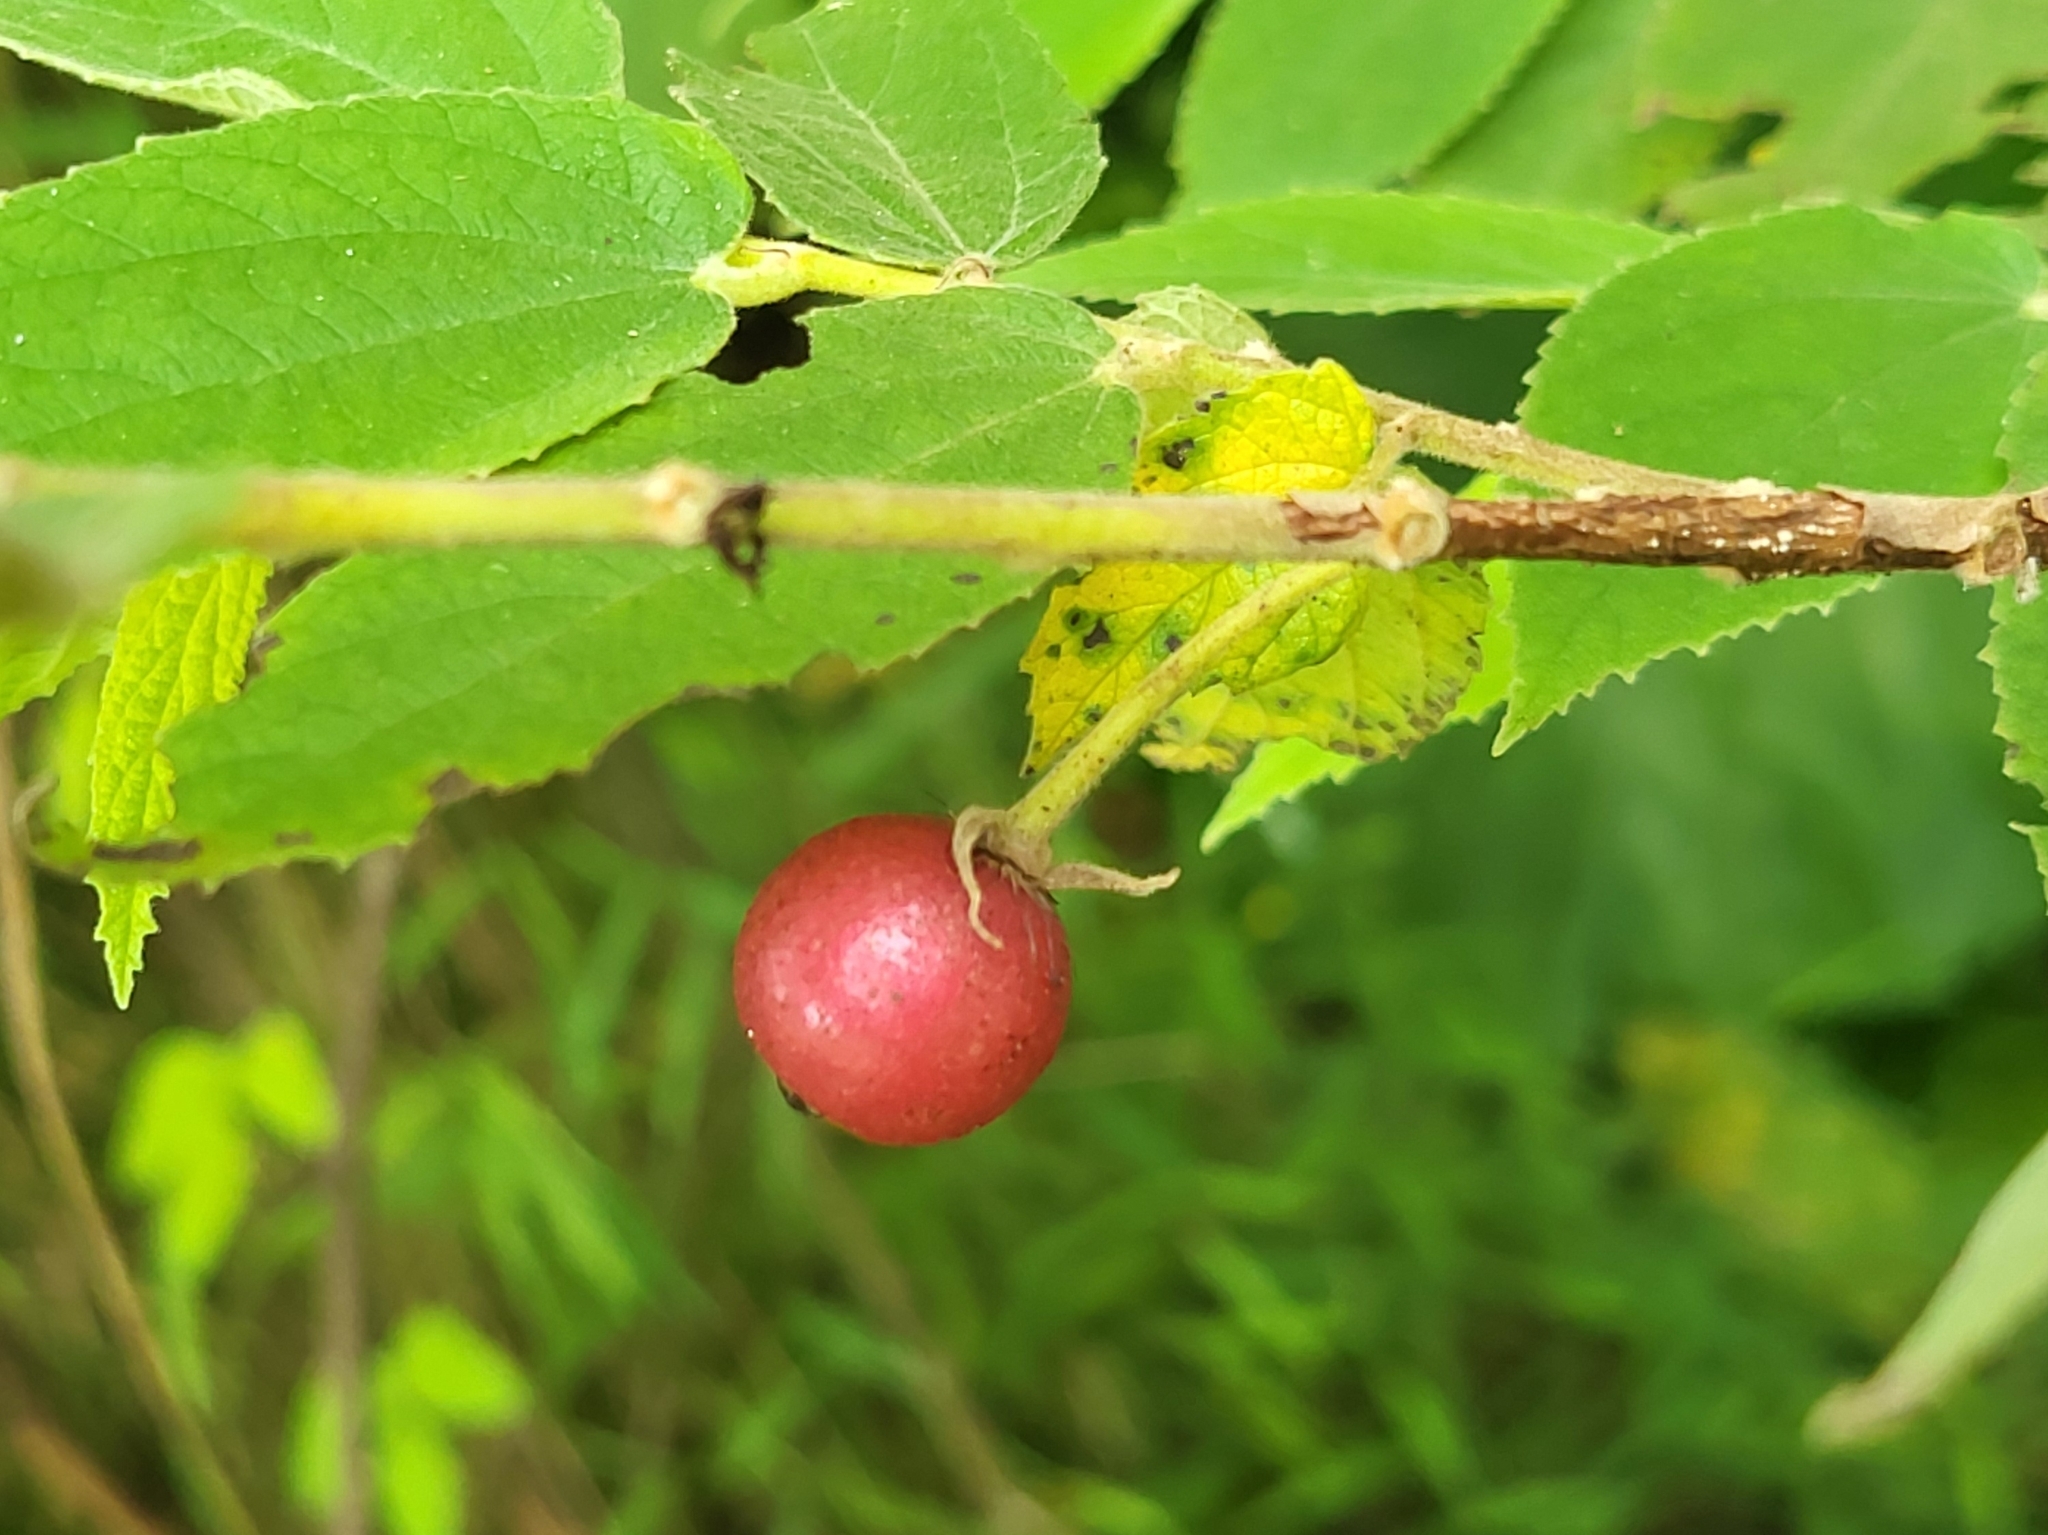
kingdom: Plantae
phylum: Tracheophyta
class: Magnoliopsida
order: Malvales
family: Muntingiaceae
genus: Muntingia
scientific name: Muntingia calabura
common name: Strawberrytree
